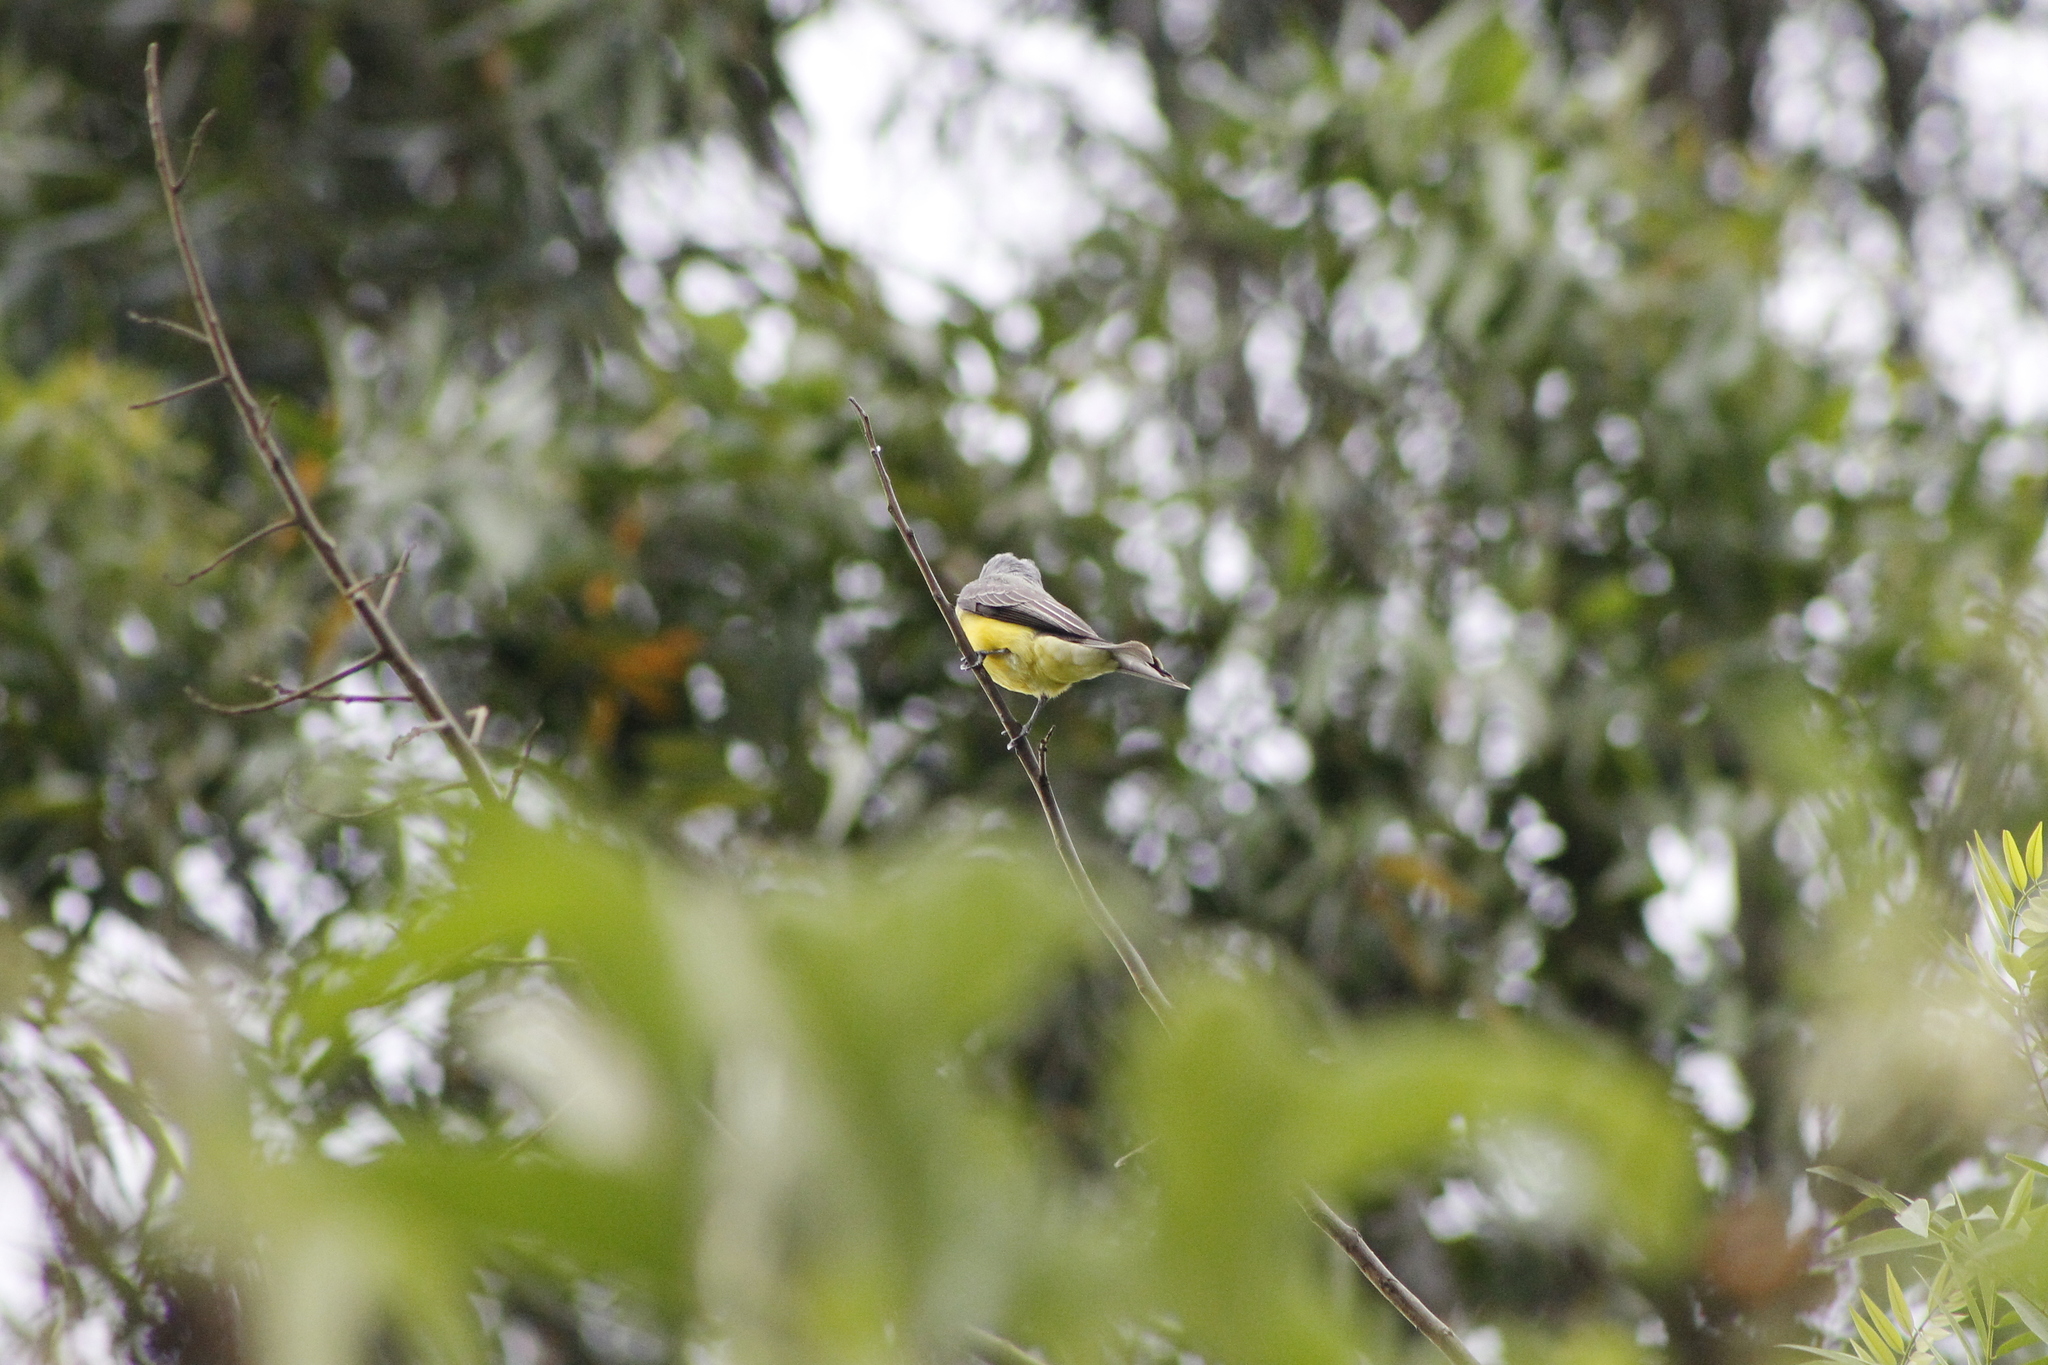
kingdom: Animalia
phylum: Chordata
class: Aves
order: Passeriformes
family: Tyrannidae
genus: Tyrannus
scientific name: Tyrannus melancholicus
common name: Tropical kingbird
